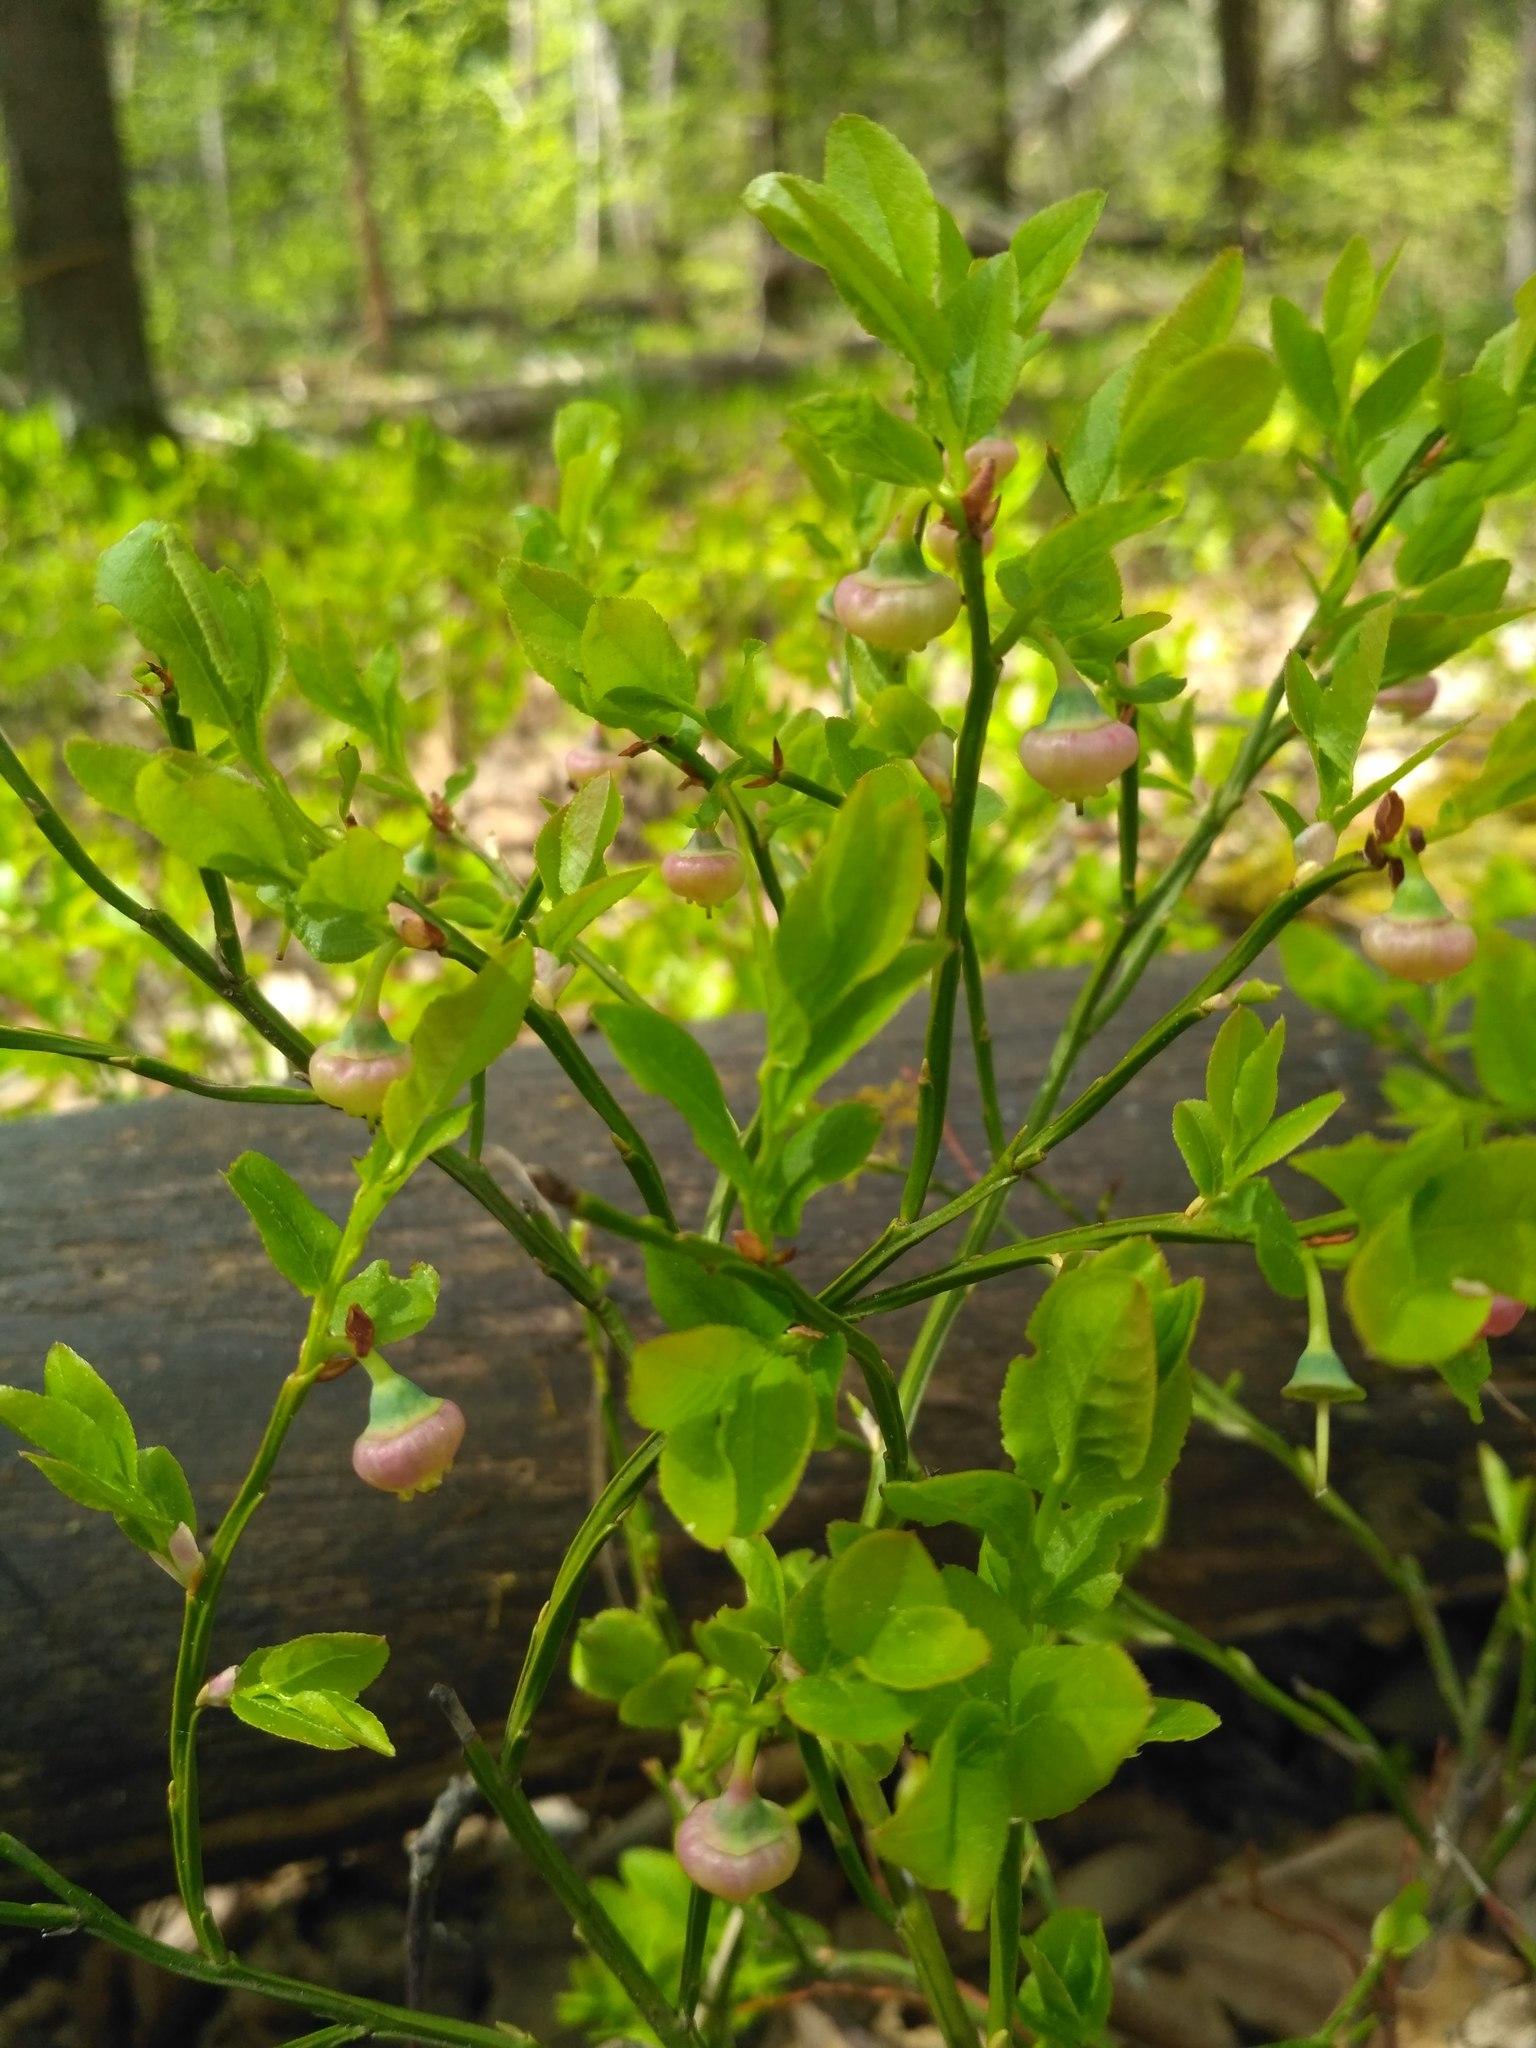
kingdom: Plantae
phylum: Tracheophyta
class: Magnoliopsida
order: Ericales
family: Ericaceae
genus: Vaccinium
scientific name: Vaccinium myrtillus
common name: Bilberry
